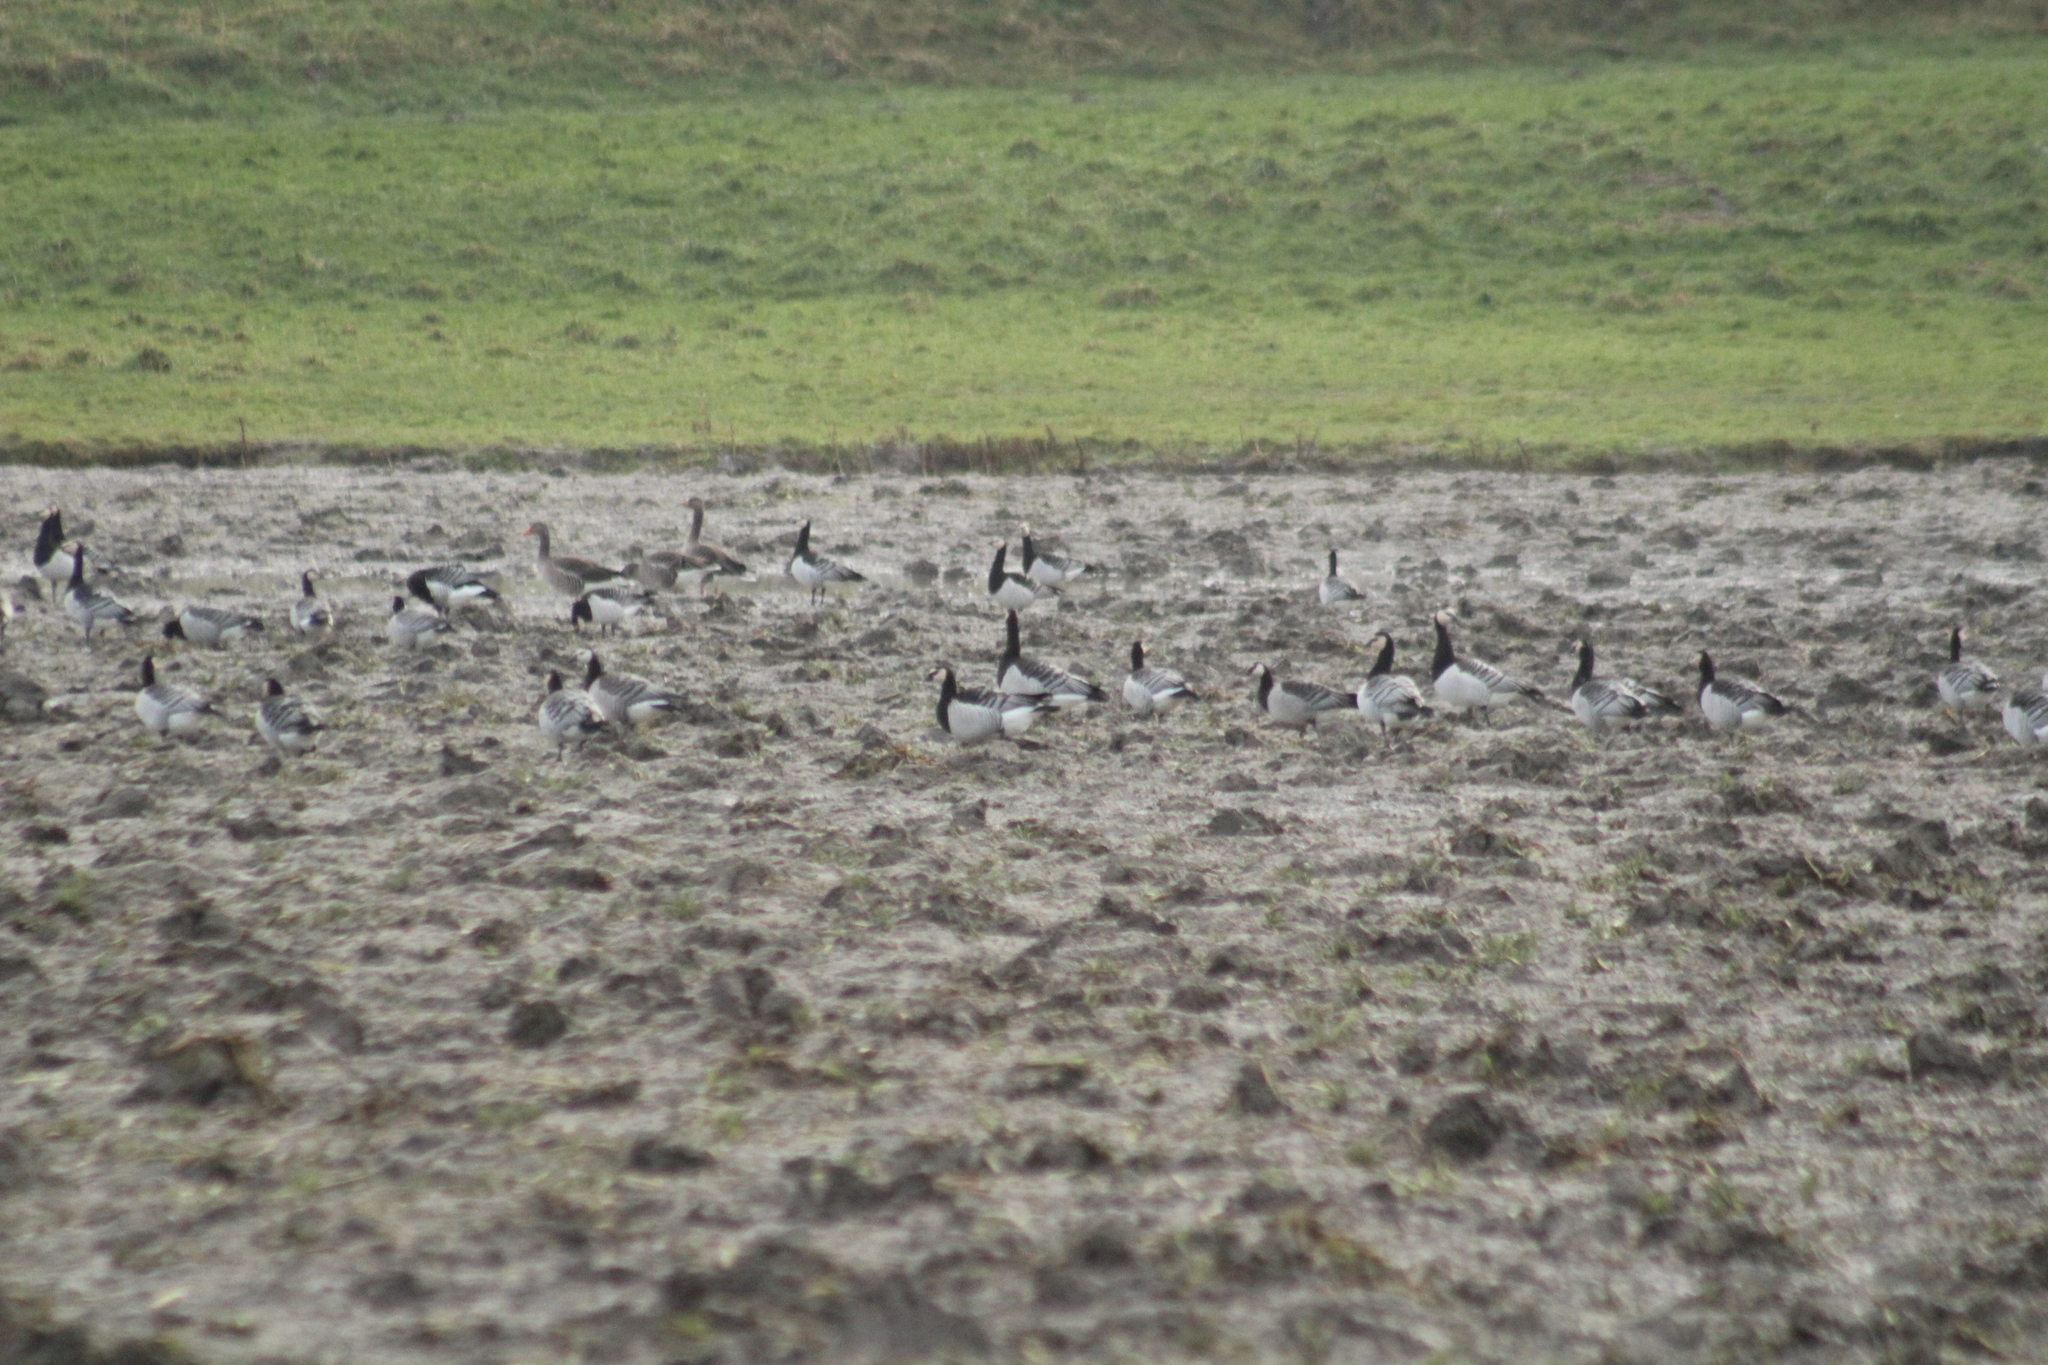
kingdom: Animalia
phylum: Chordata
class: Aves
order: Anseriformes
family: Anatidae
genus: Branta
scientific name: Branta leucopsis
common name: Barnacle goose
